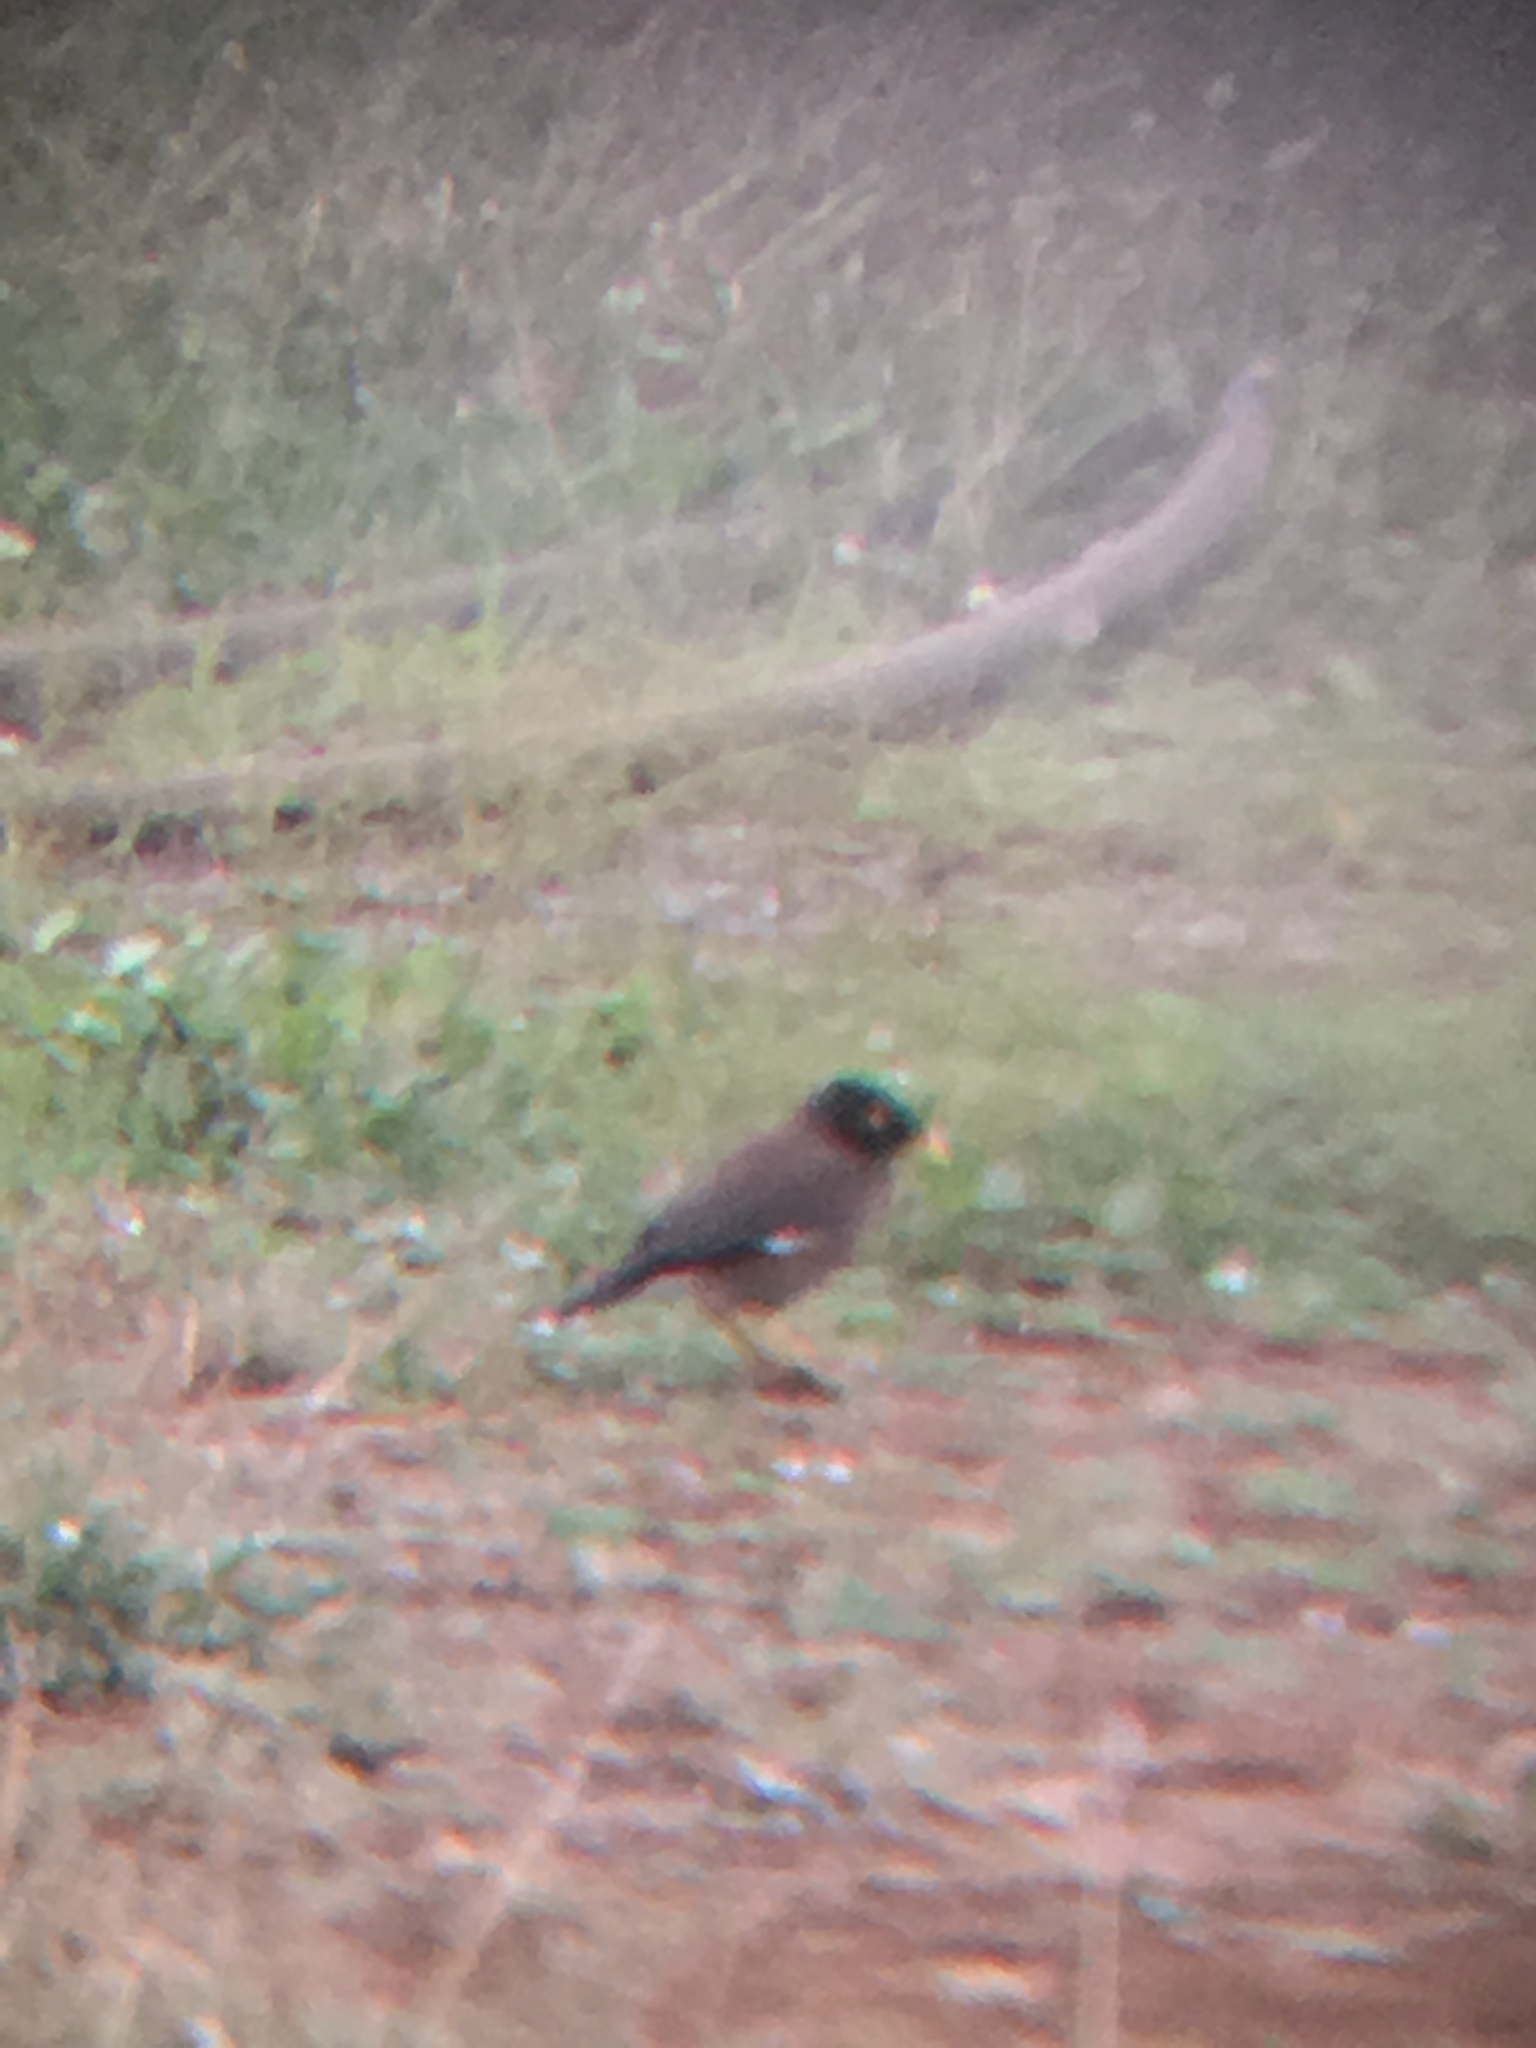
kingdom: Animalia
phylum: Chordata
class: Aves
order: Passeriformes
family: Sturnidae
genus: Acridotheres
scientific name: Acridotheres tristis
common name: Common myna
